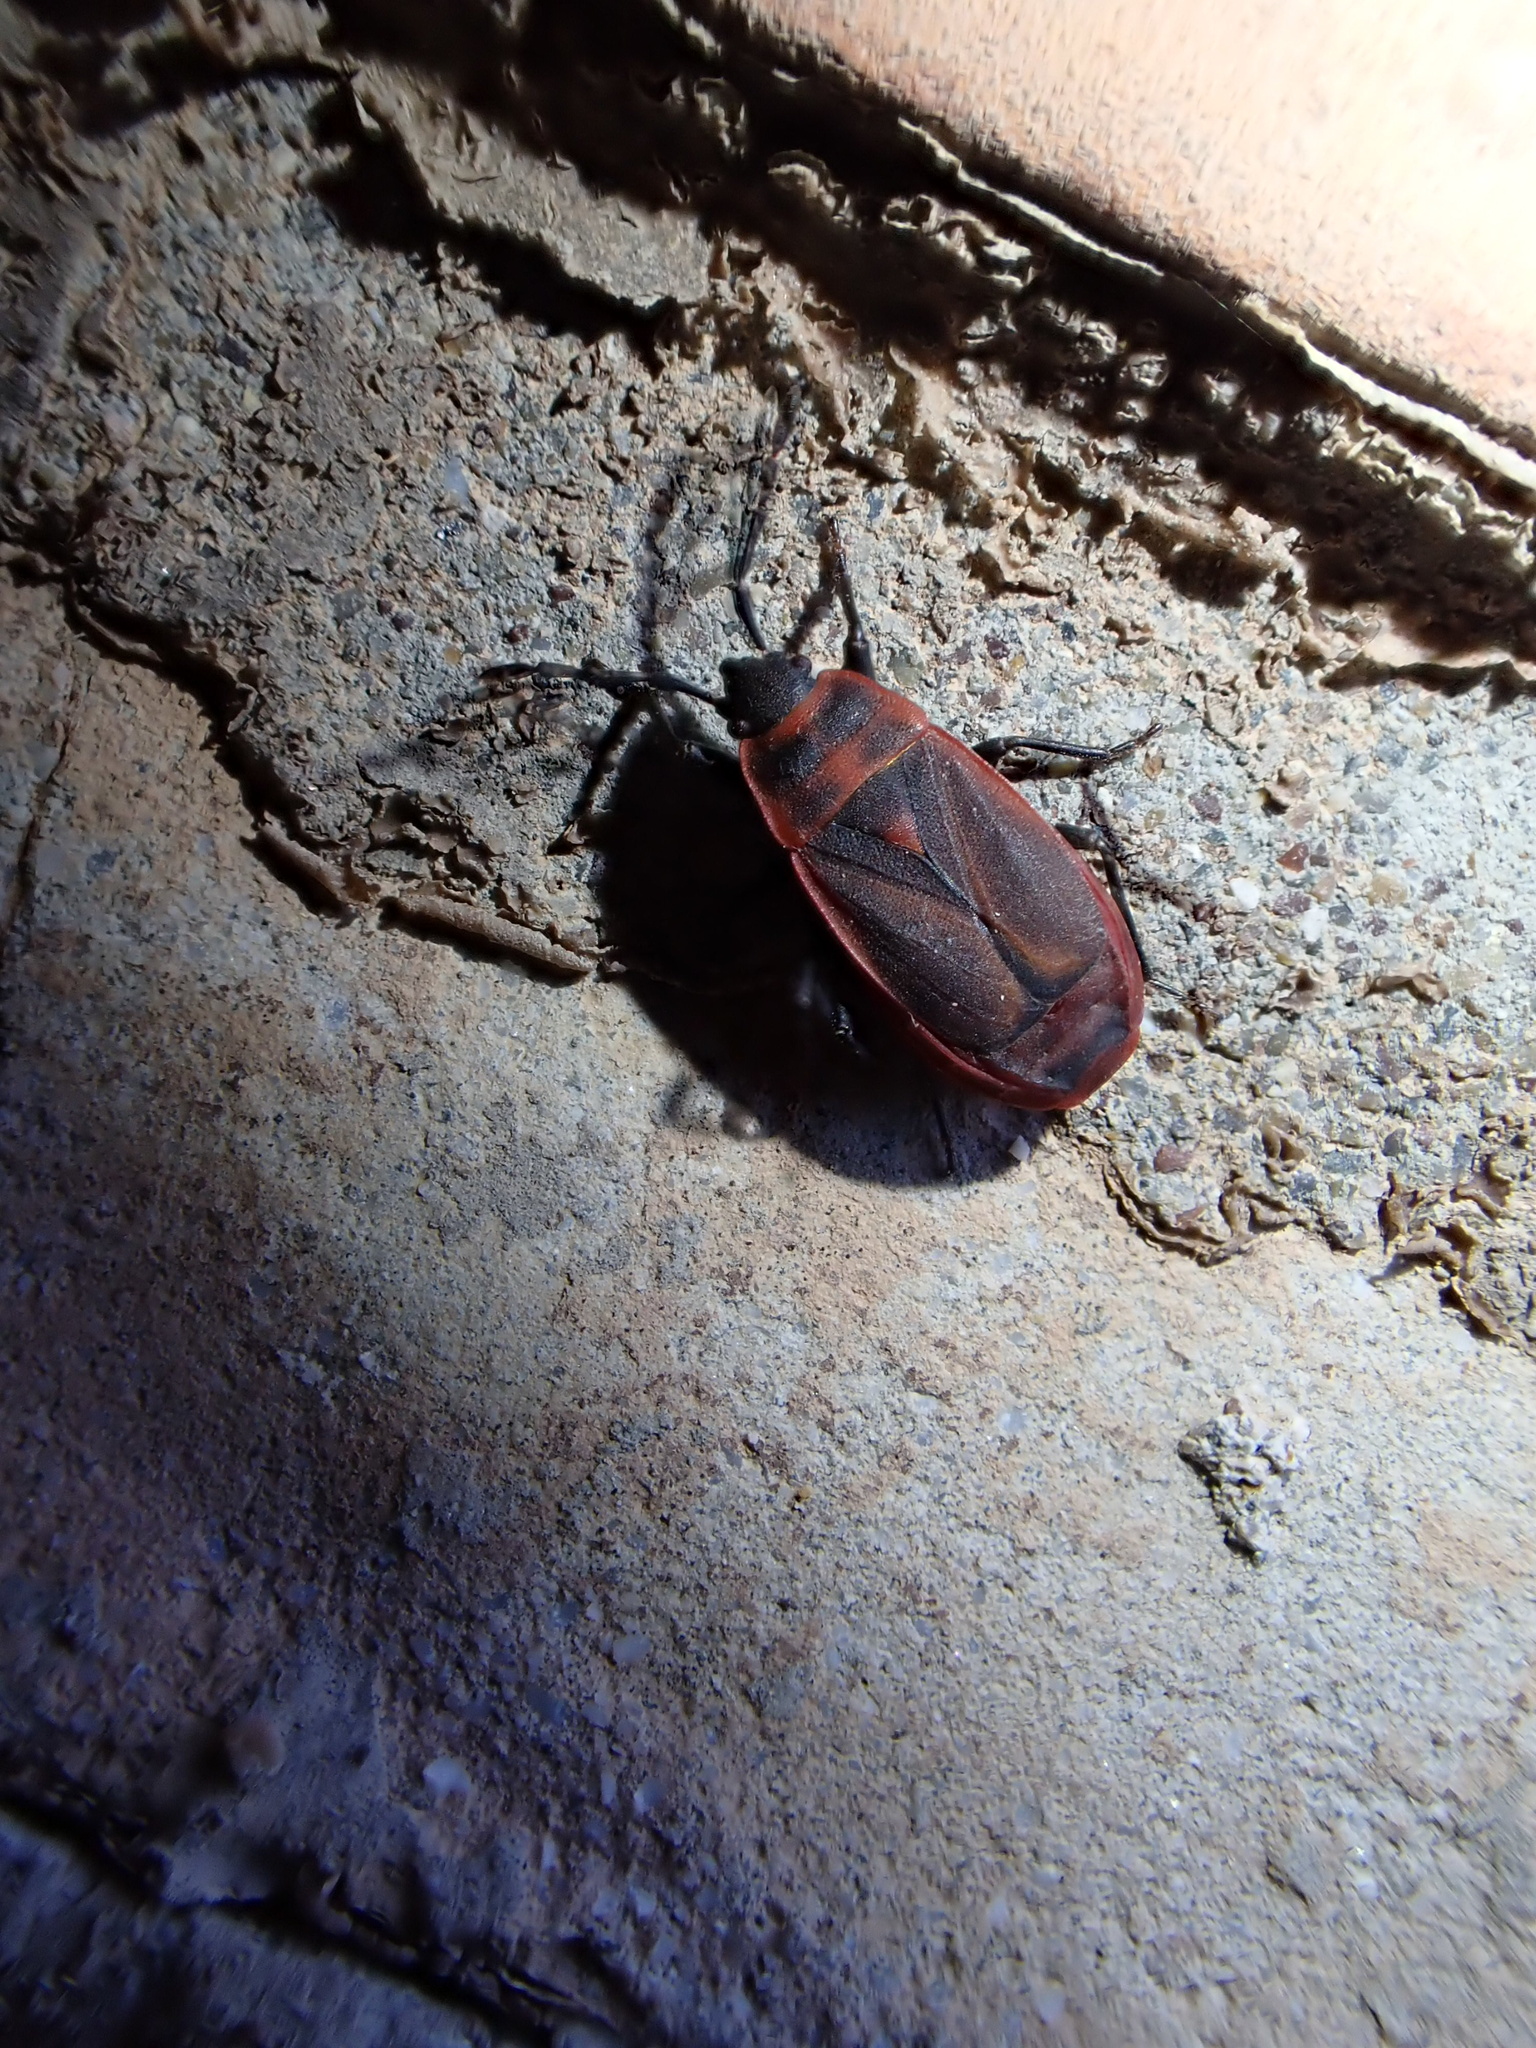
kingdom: Animalia
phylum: Arthropoda
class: Insecta
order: Hemiptera
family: Pyrrhocoridae
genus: Scantius
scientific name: Scantius forsteri
